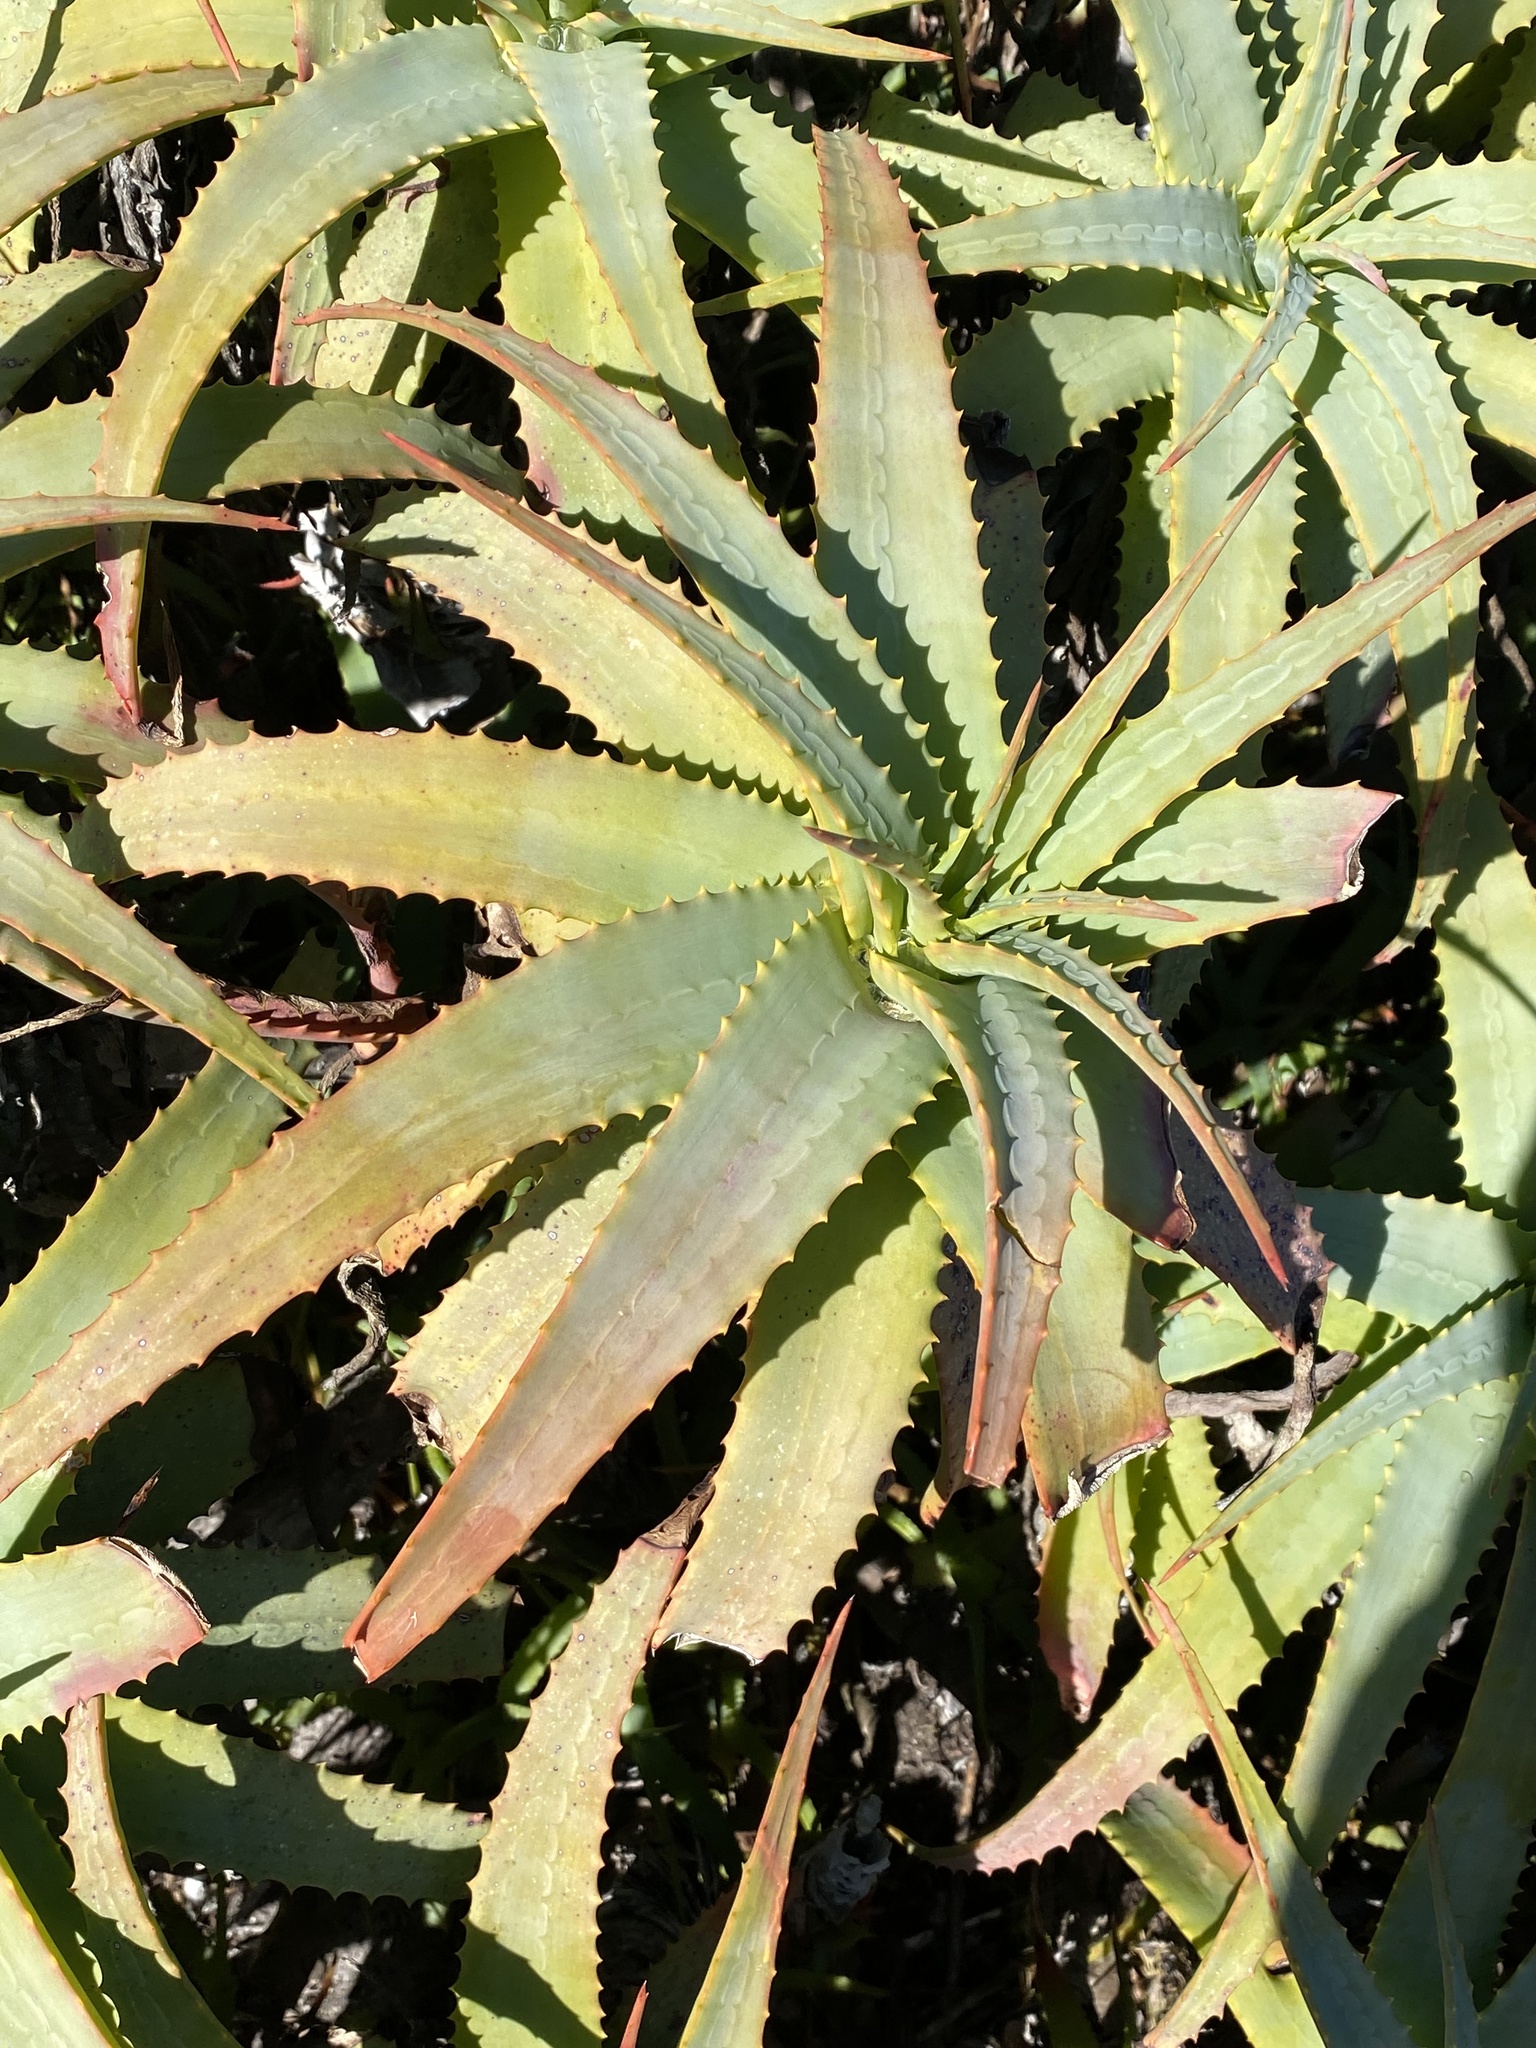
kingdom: Plantae
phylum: Tracheophyta
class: Liliopsida
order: Asparagales
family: Asphodelaceae
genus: Aloe
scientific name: Aloe arborescens
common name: Candelabra aloe
